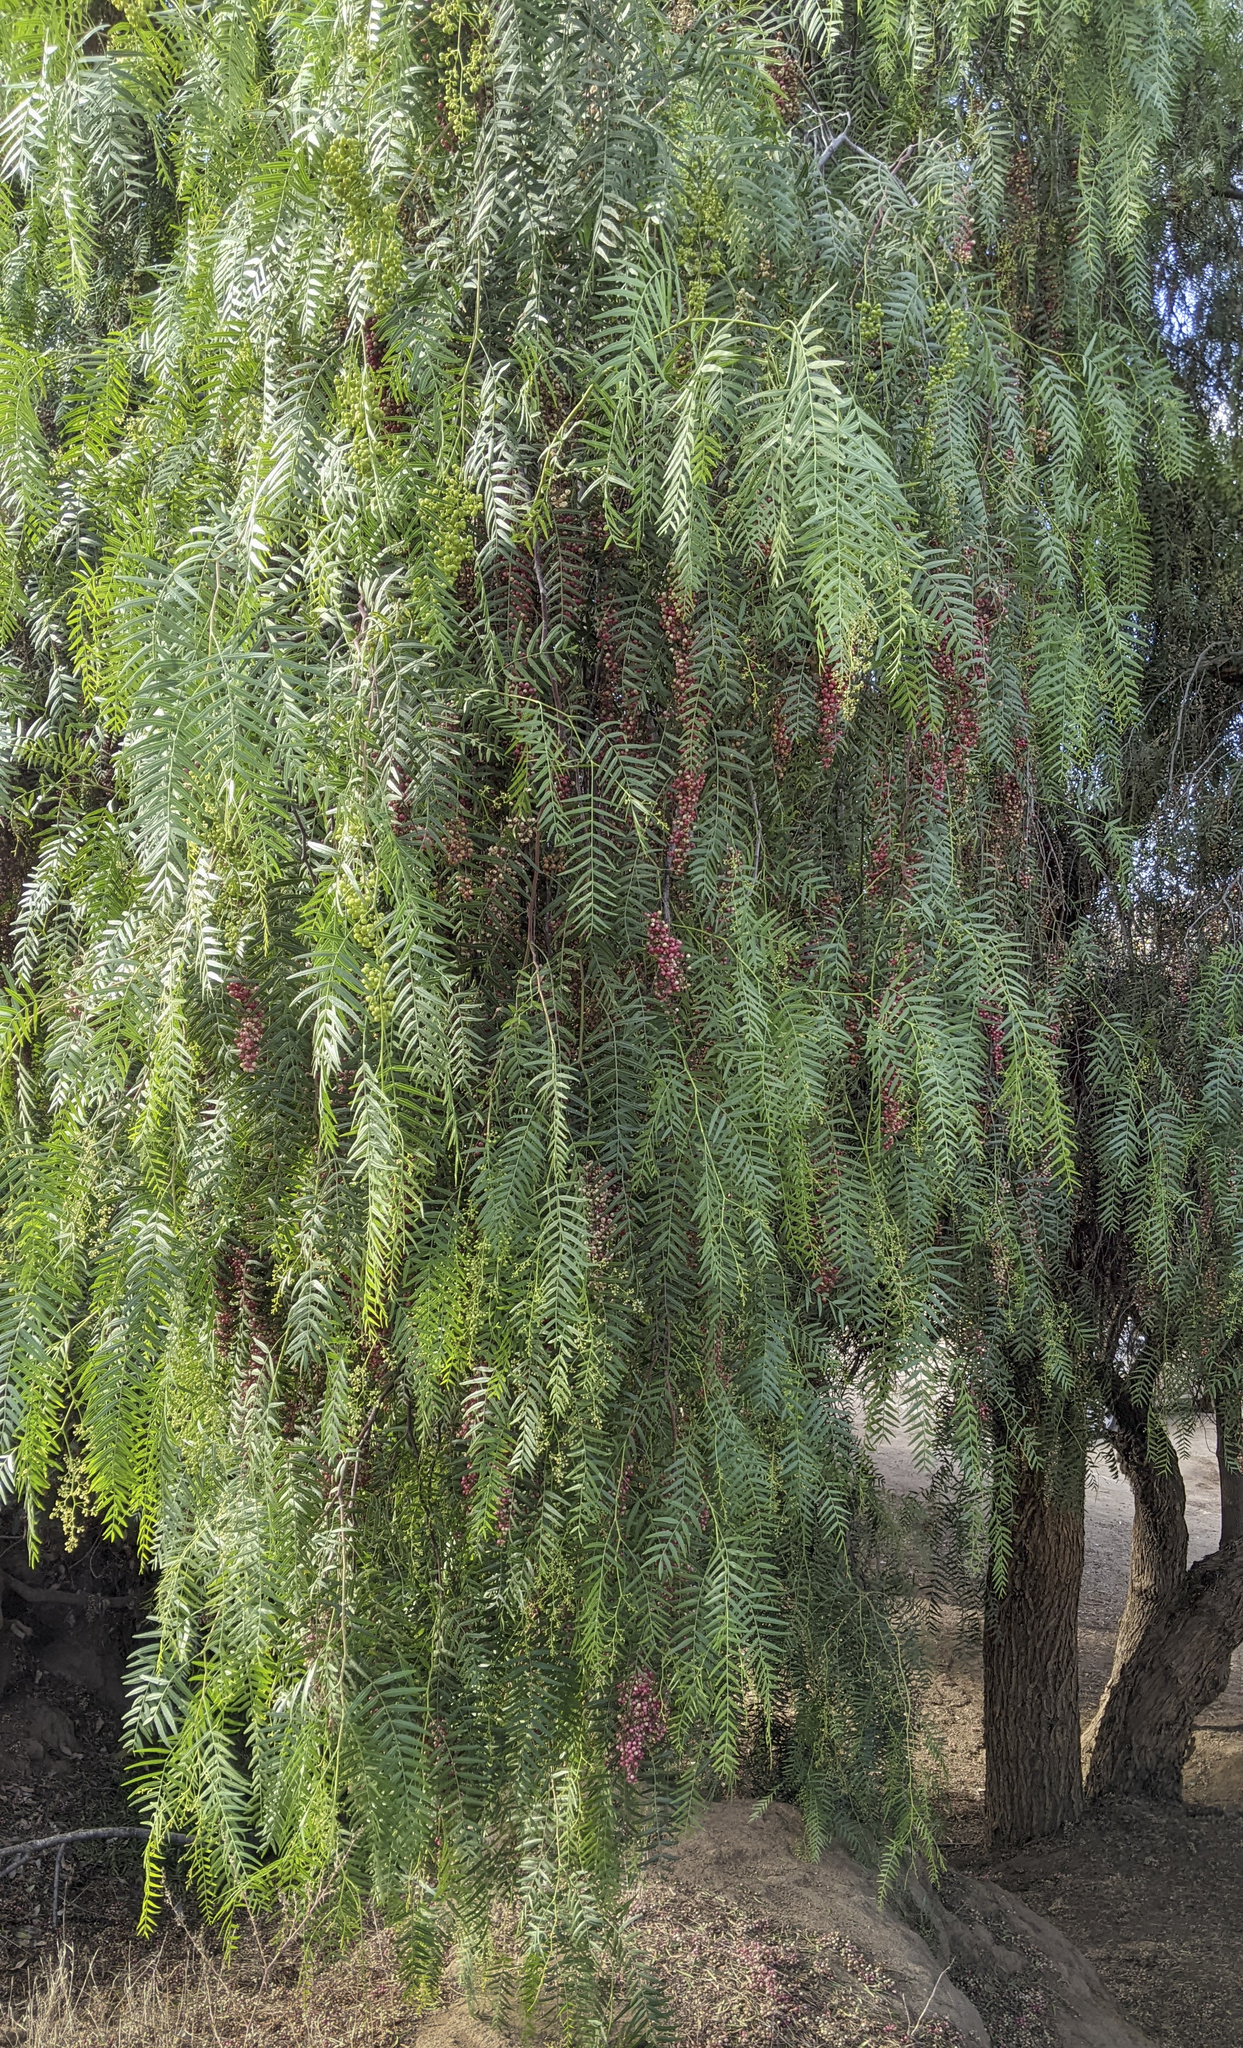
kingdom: Plantae
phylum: Tracheophyta
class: Magnoliopsida
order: Sapindales
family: Anacardiaceae
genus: Schinus
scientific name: Schinus molle
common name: Peruvian peppertree
